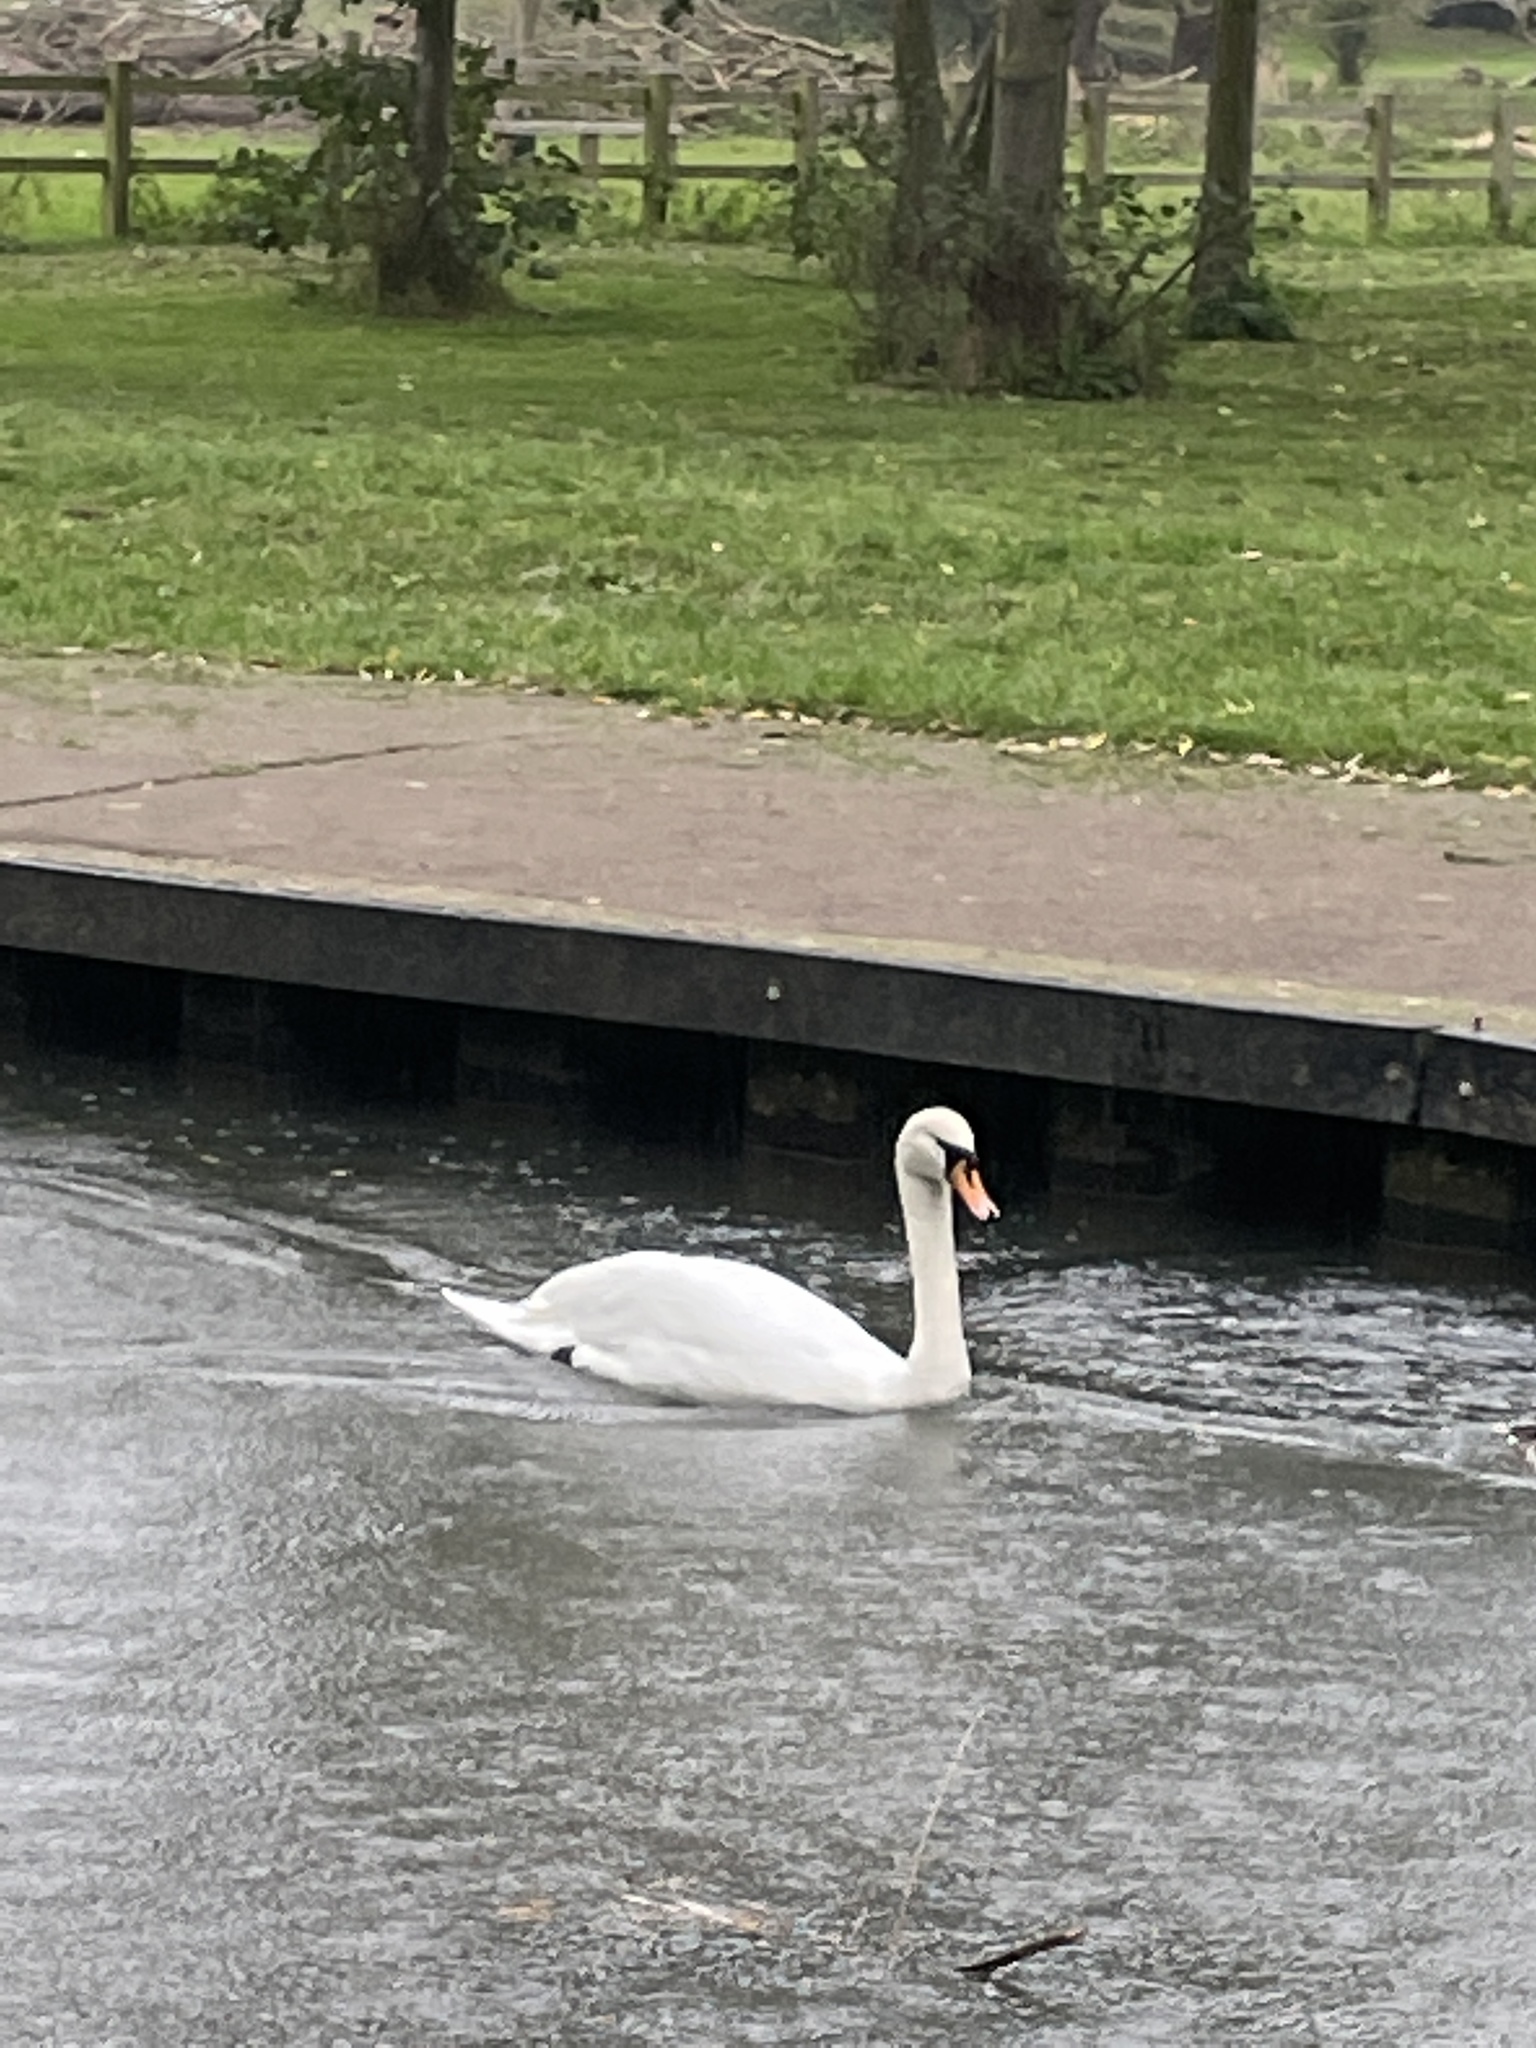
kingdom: Animalia
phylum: Chordata
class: Aves
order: Anseriformes
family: Anatidae
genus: Cygnus
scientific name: Cygnus olor
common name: Mute swan
